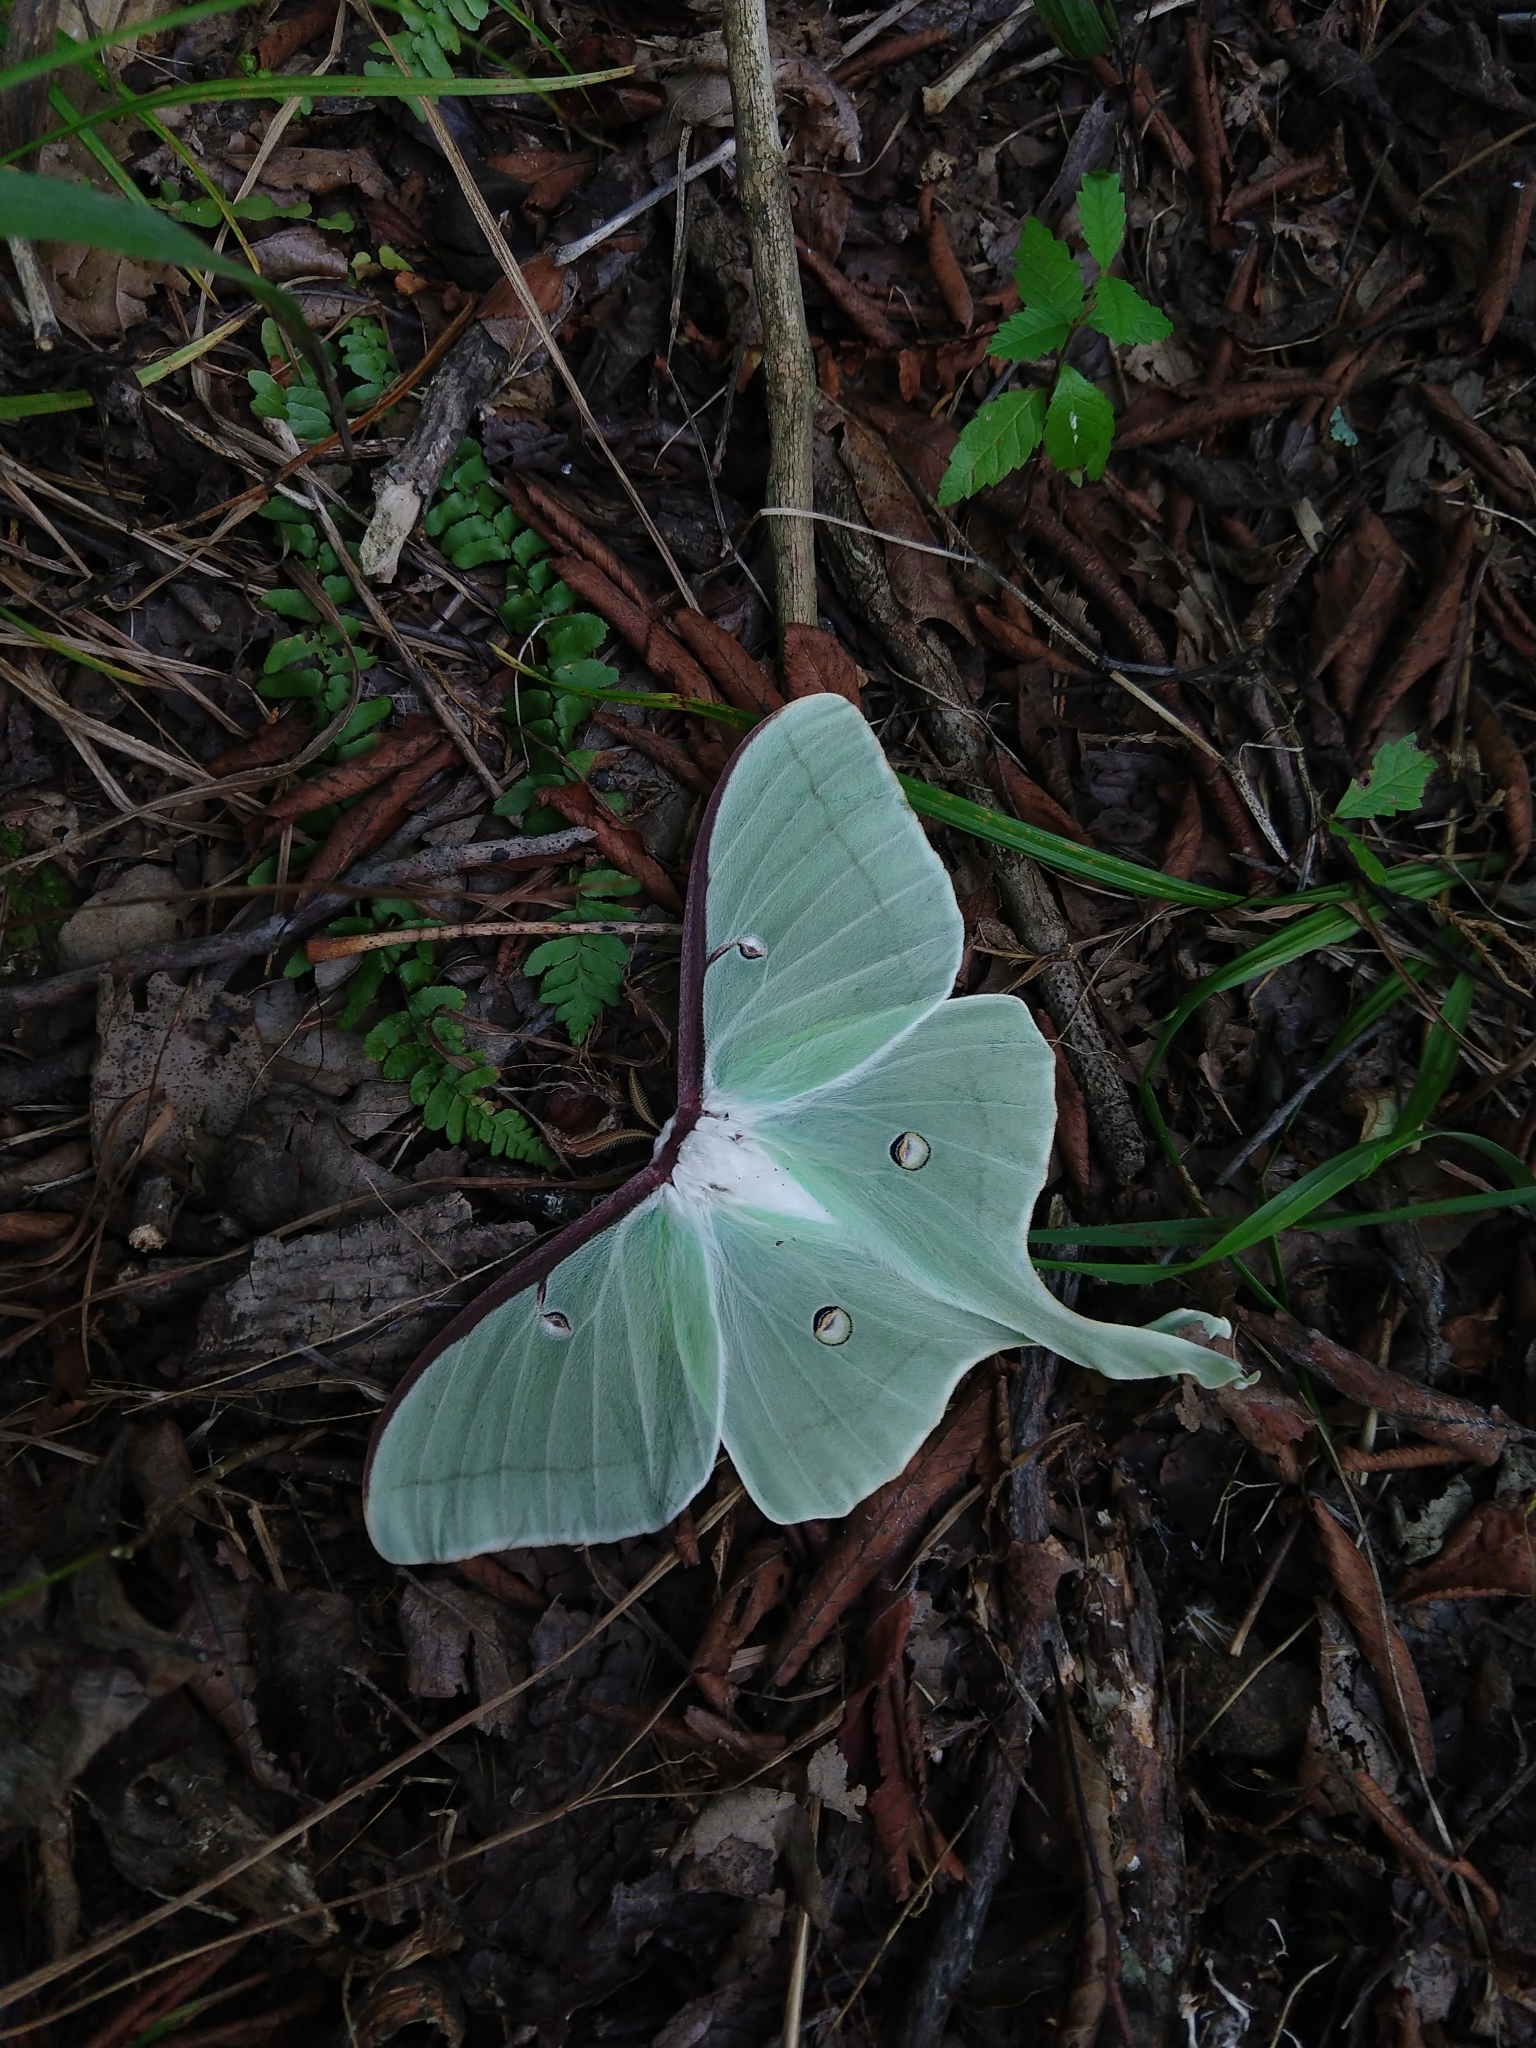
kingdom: Animalia
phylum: Arthropoda
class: Insecta
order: Lepidoptera
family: Saturniidae
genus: Actias
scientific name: Actias luna
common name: Luna moth
